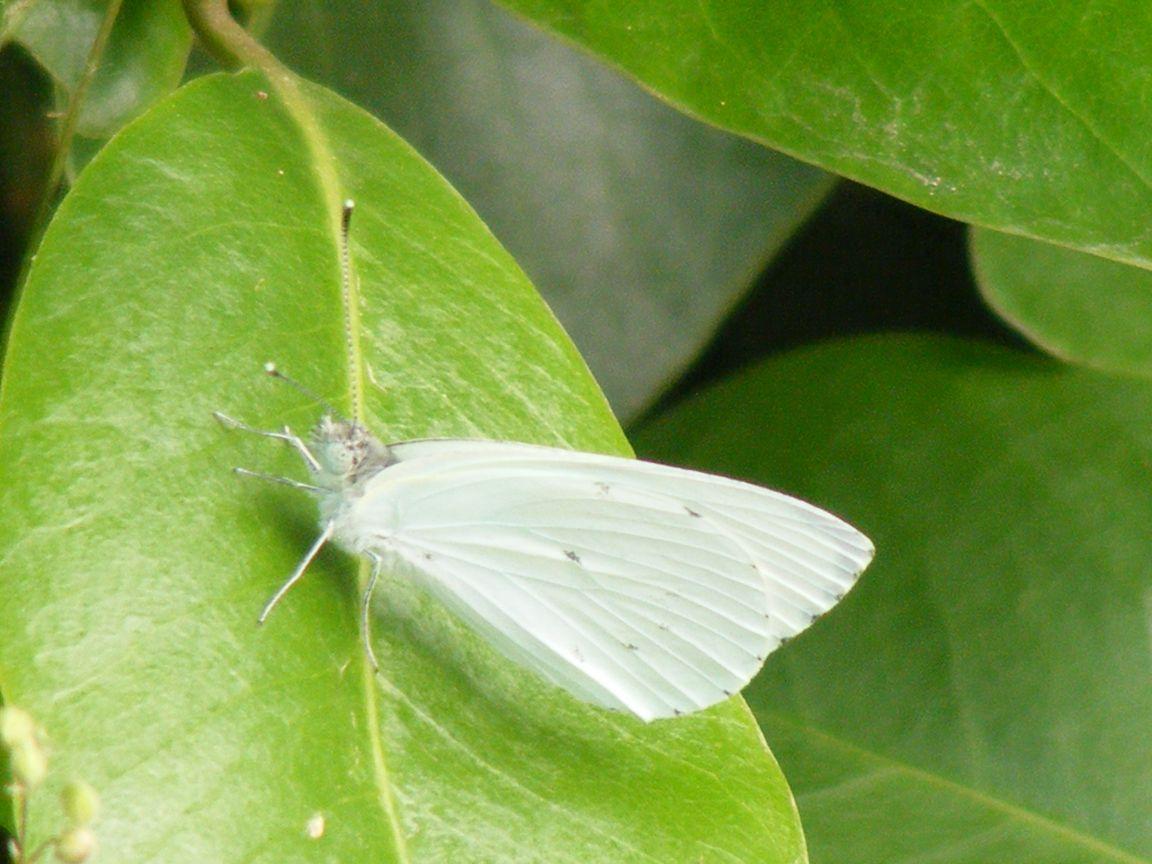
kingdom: Animalia
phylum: Arthropoda
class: Insecta
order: Lepidoptera
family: Pieridae
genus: Dixeia
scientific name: Dixeia charina
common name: African small white
